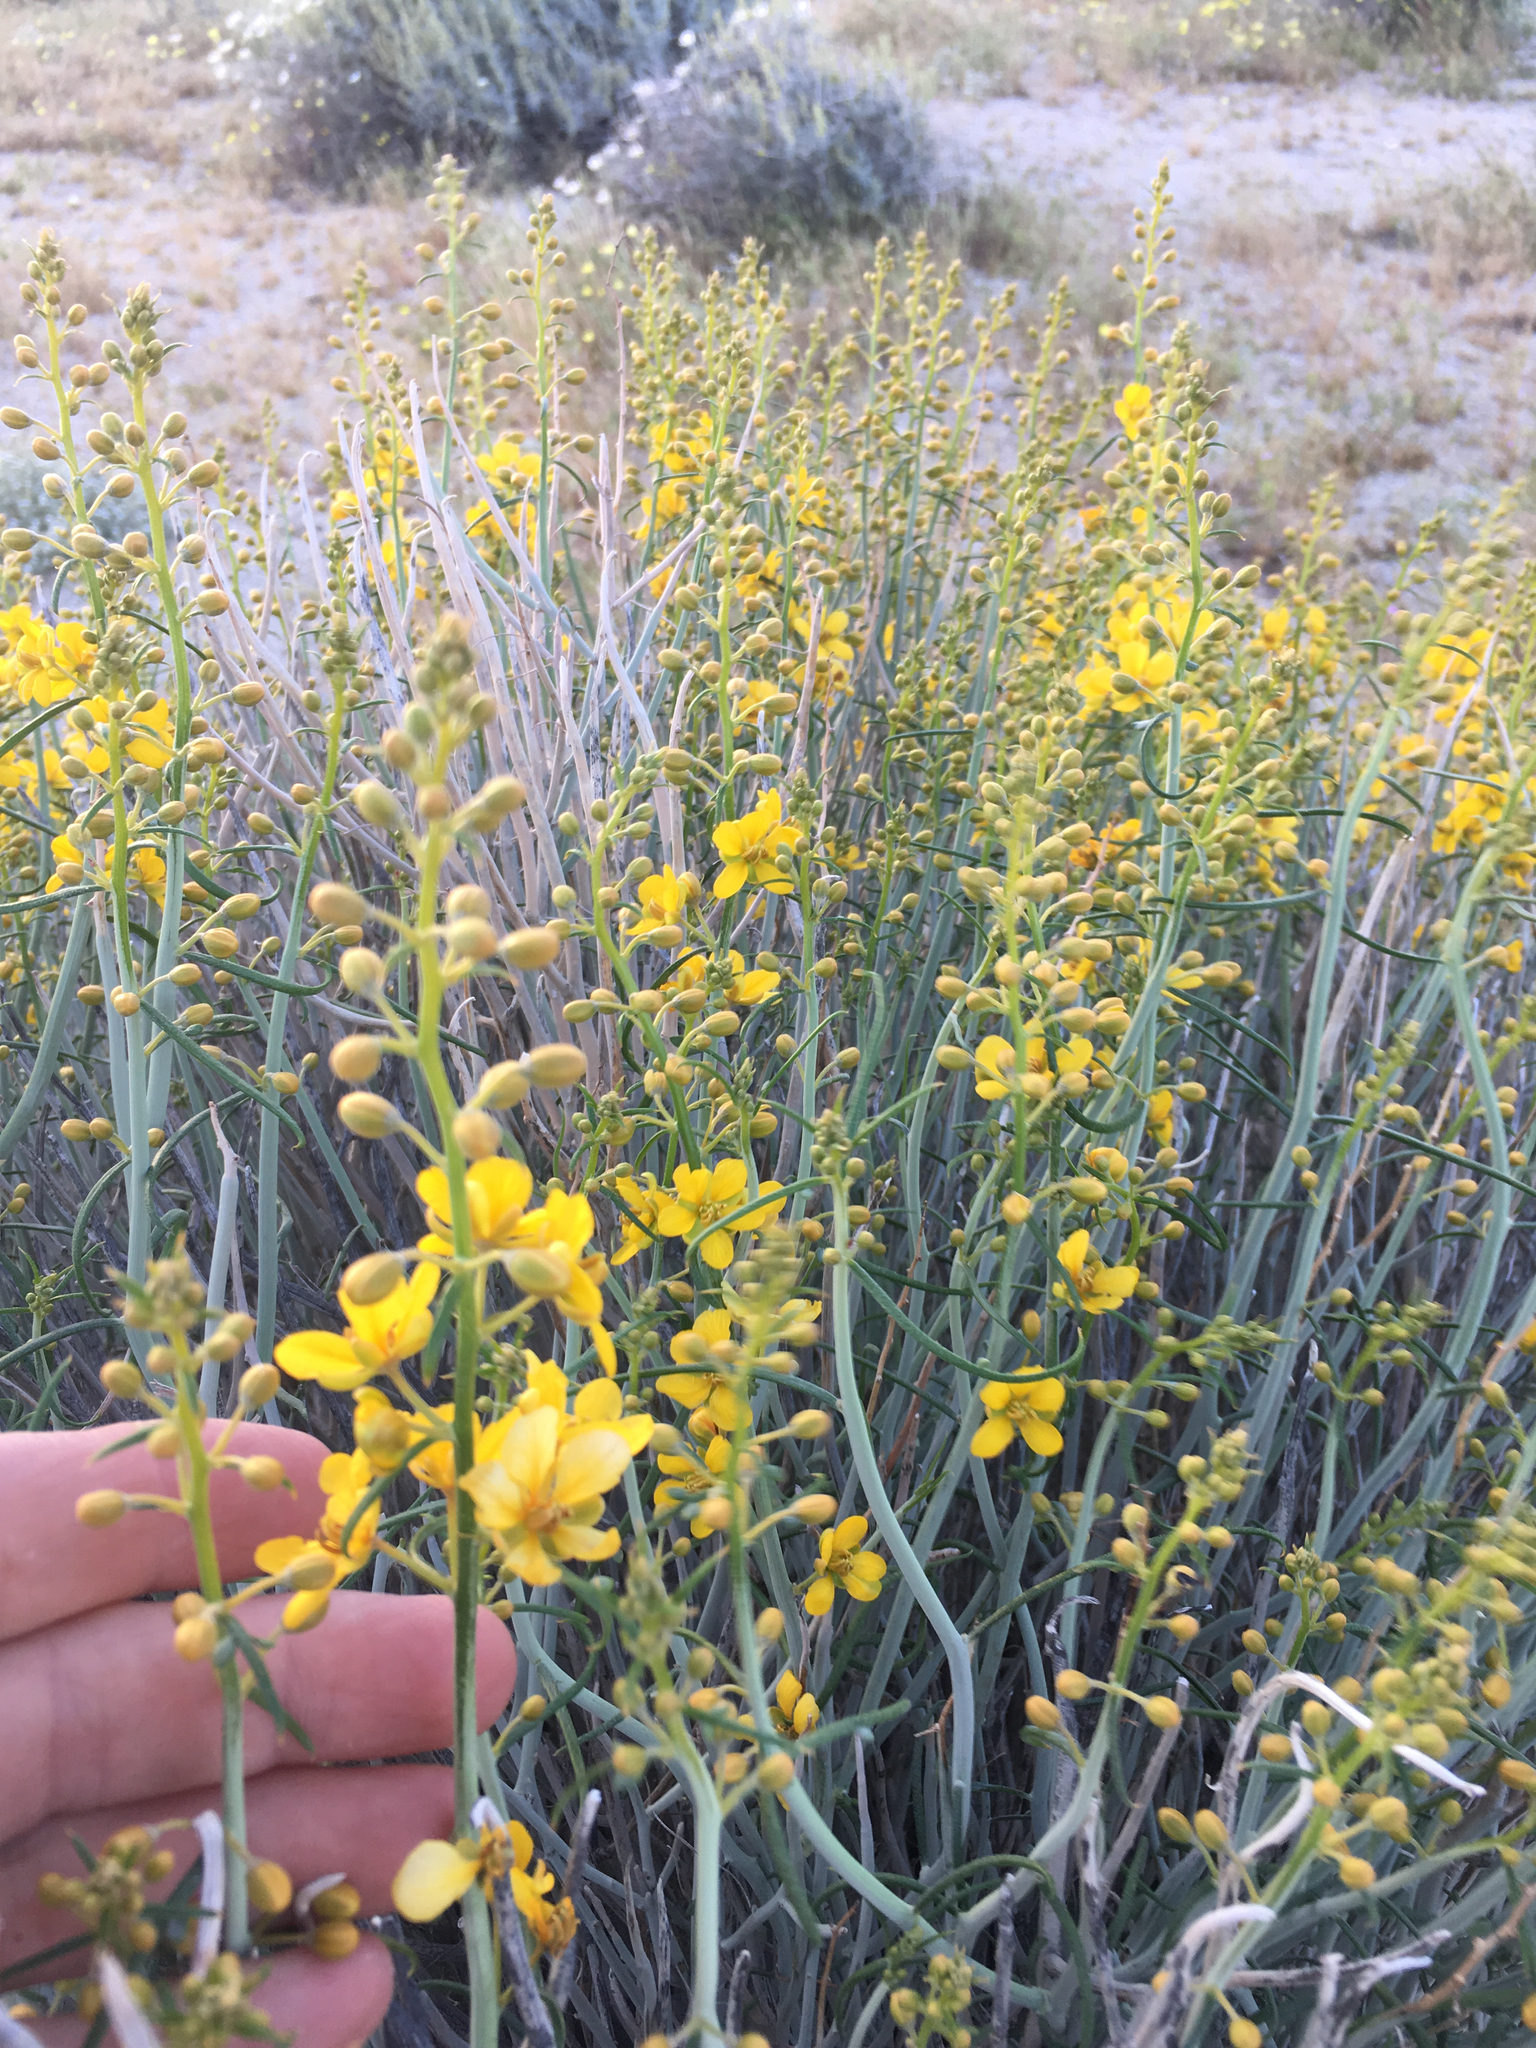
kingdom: Plantae
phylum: Tracheophyta
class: Magnoliopsida
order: Fabales
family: Fabaceae
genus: Senna
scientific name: Senna armata
